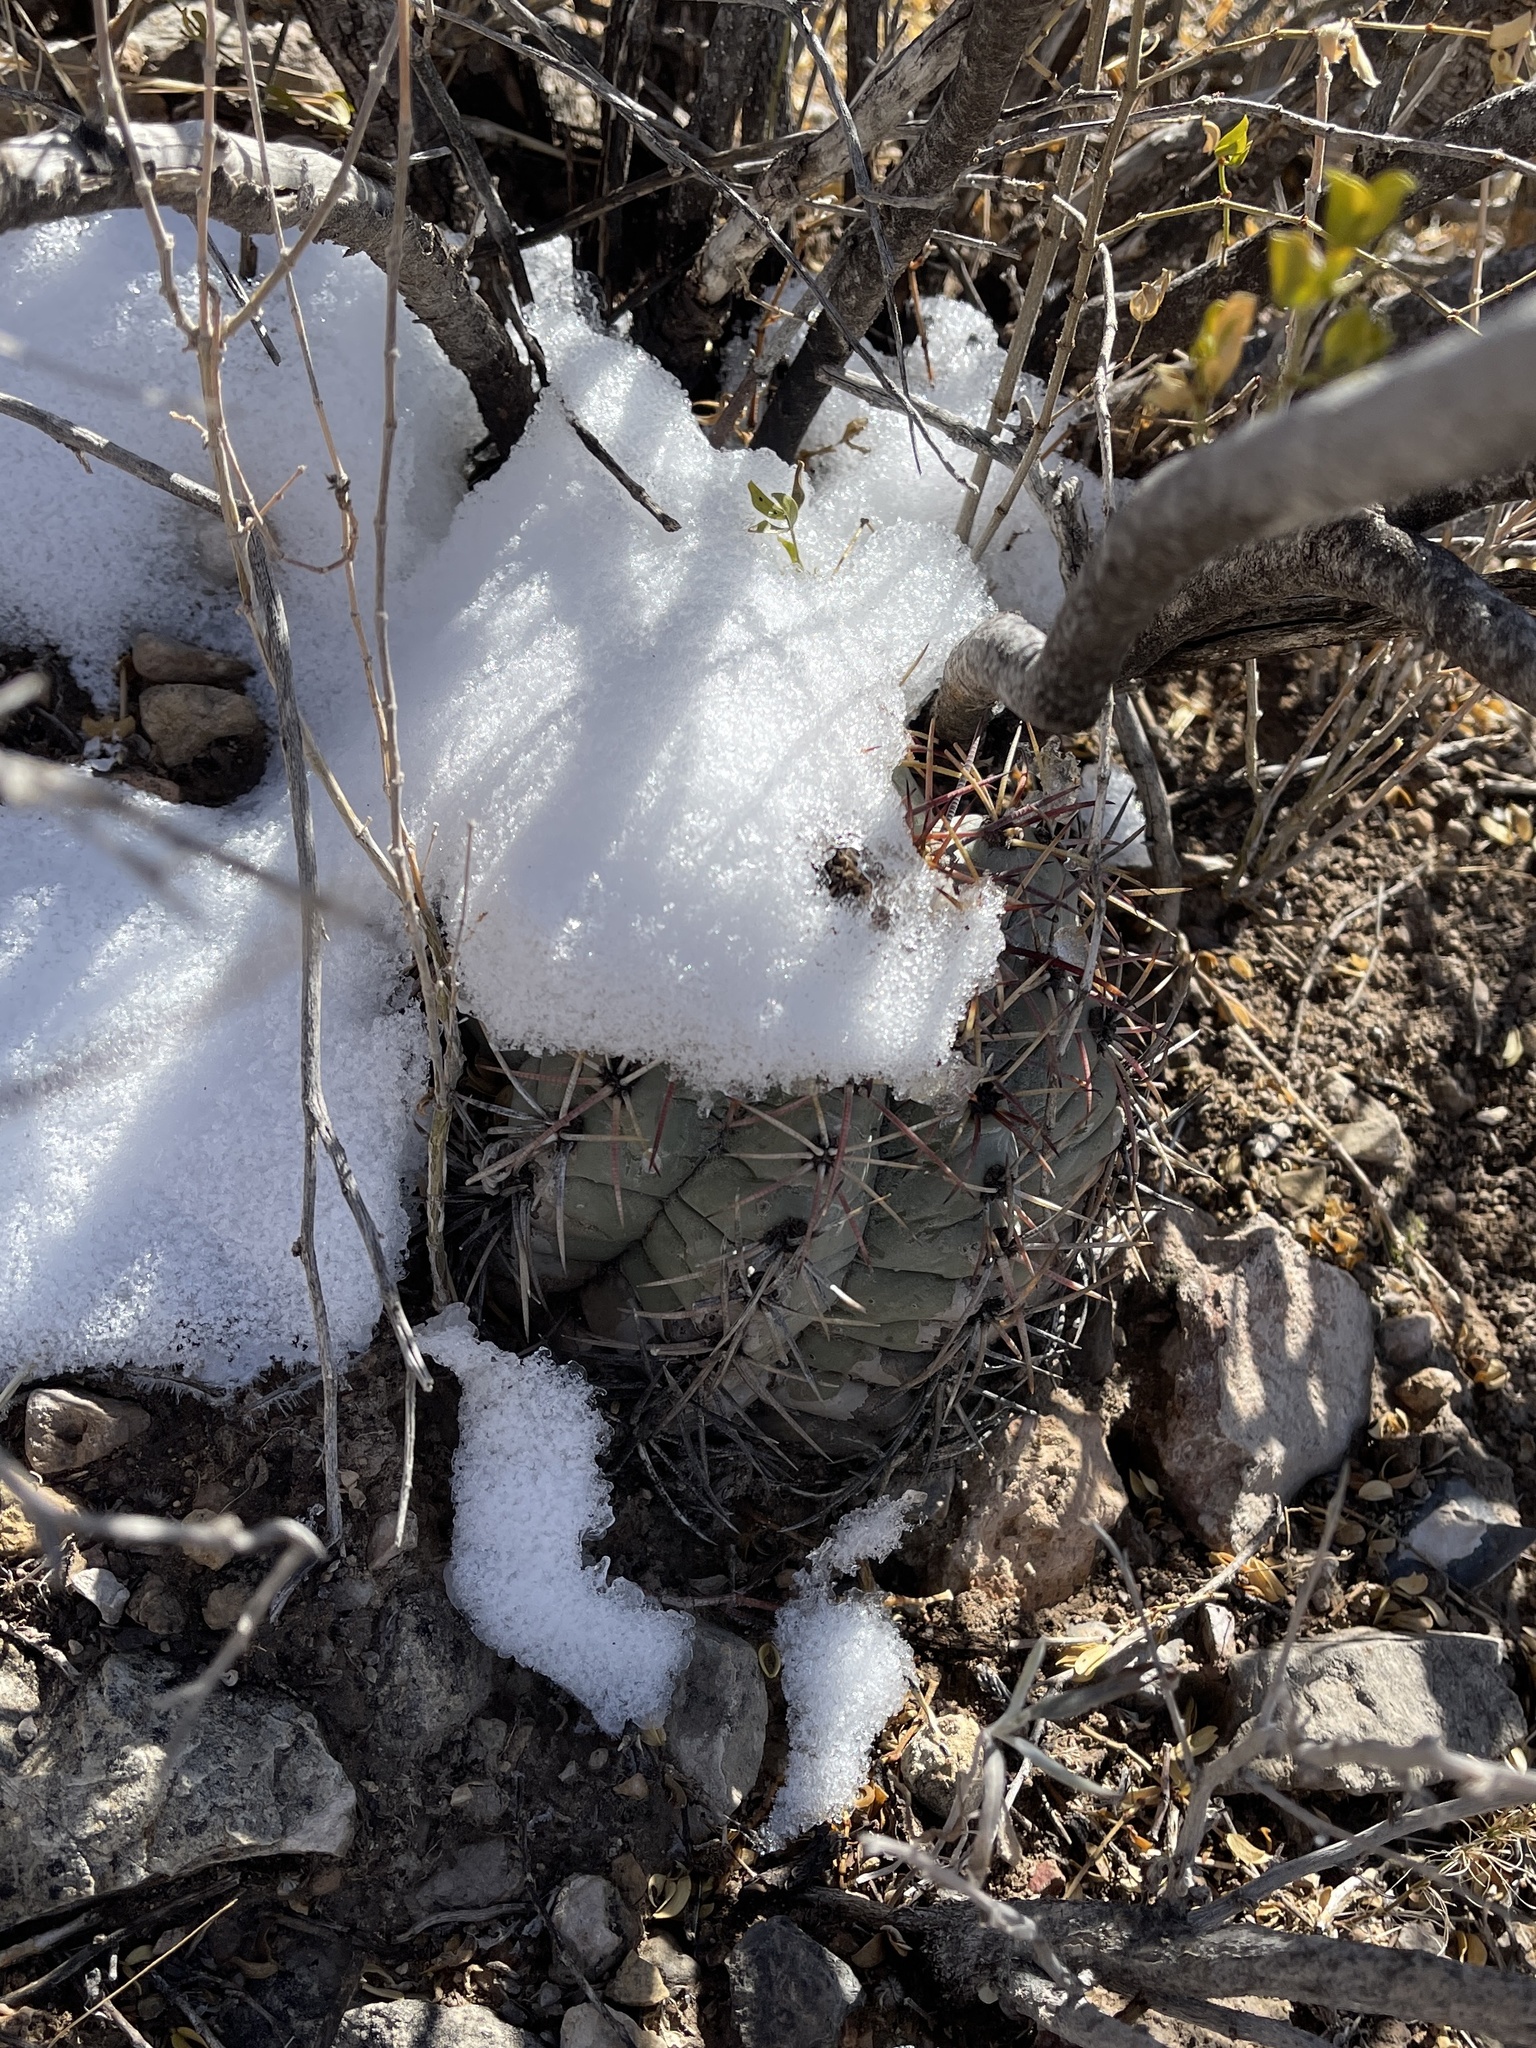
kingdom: Plantae
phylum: Tracheophyta
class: Magnoliopsida
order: Caryophyllales
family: Cactaceae
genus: Echinocactus
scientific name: Echinocactus horizonthalonius
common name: Devilshead
